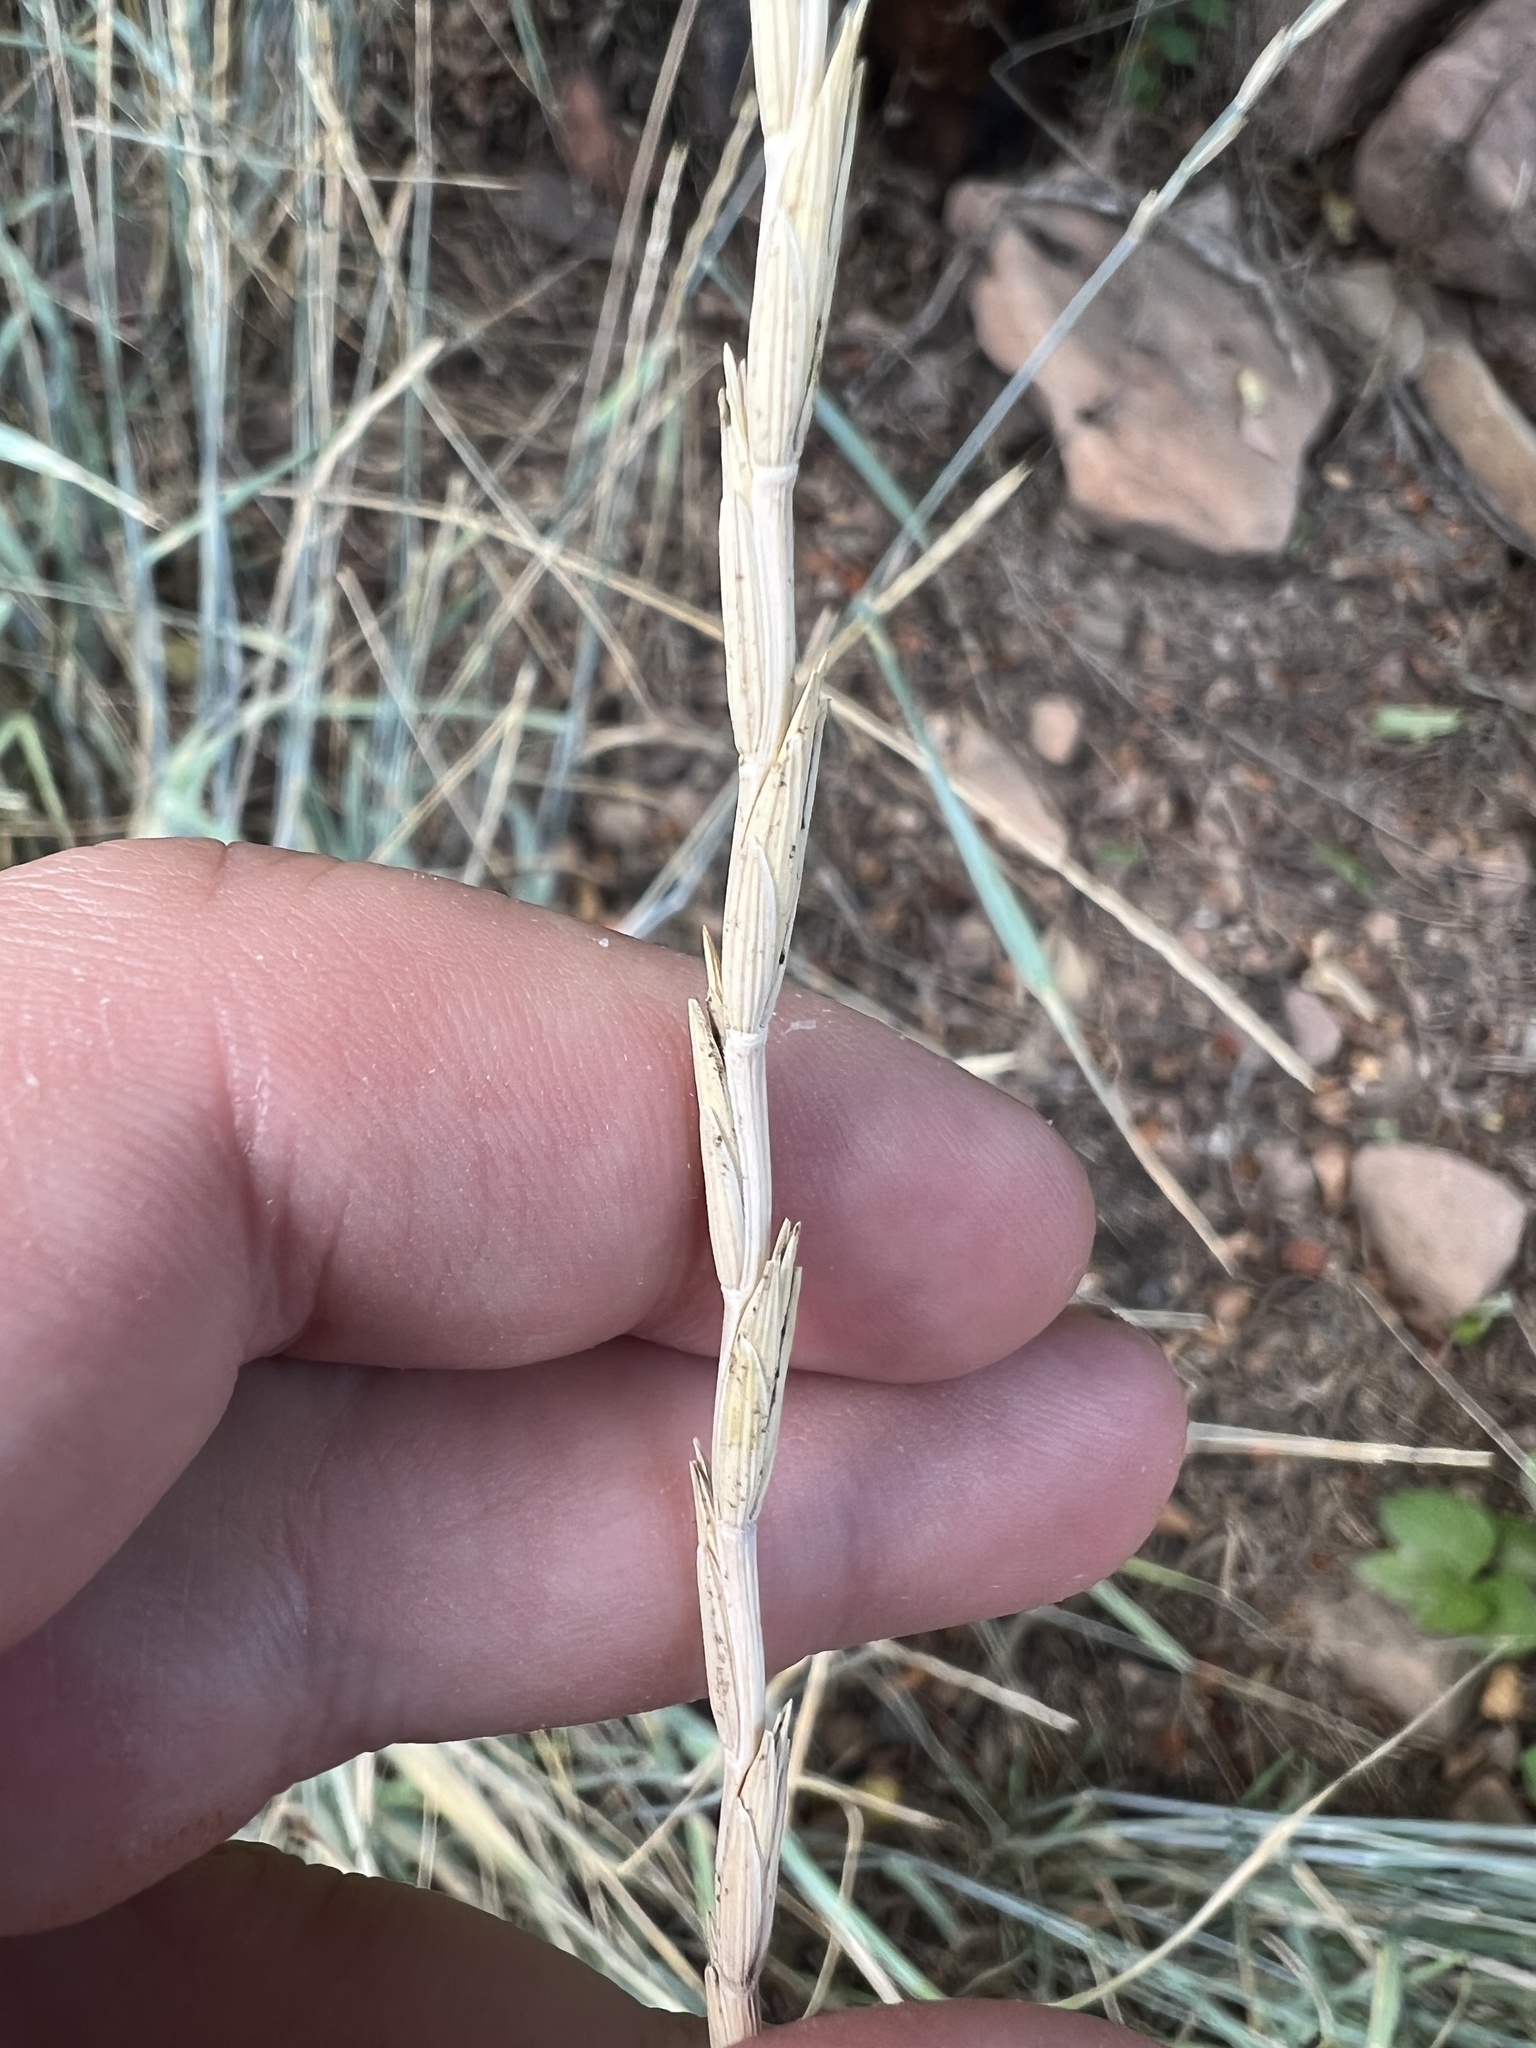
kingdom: Plantae
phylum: Tracheophyta
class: Liliopsida
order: Poales
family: Poaceae
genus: Thinopyrum
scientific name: Thinopyrum intermedium
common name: Intermediate wheatgrass
